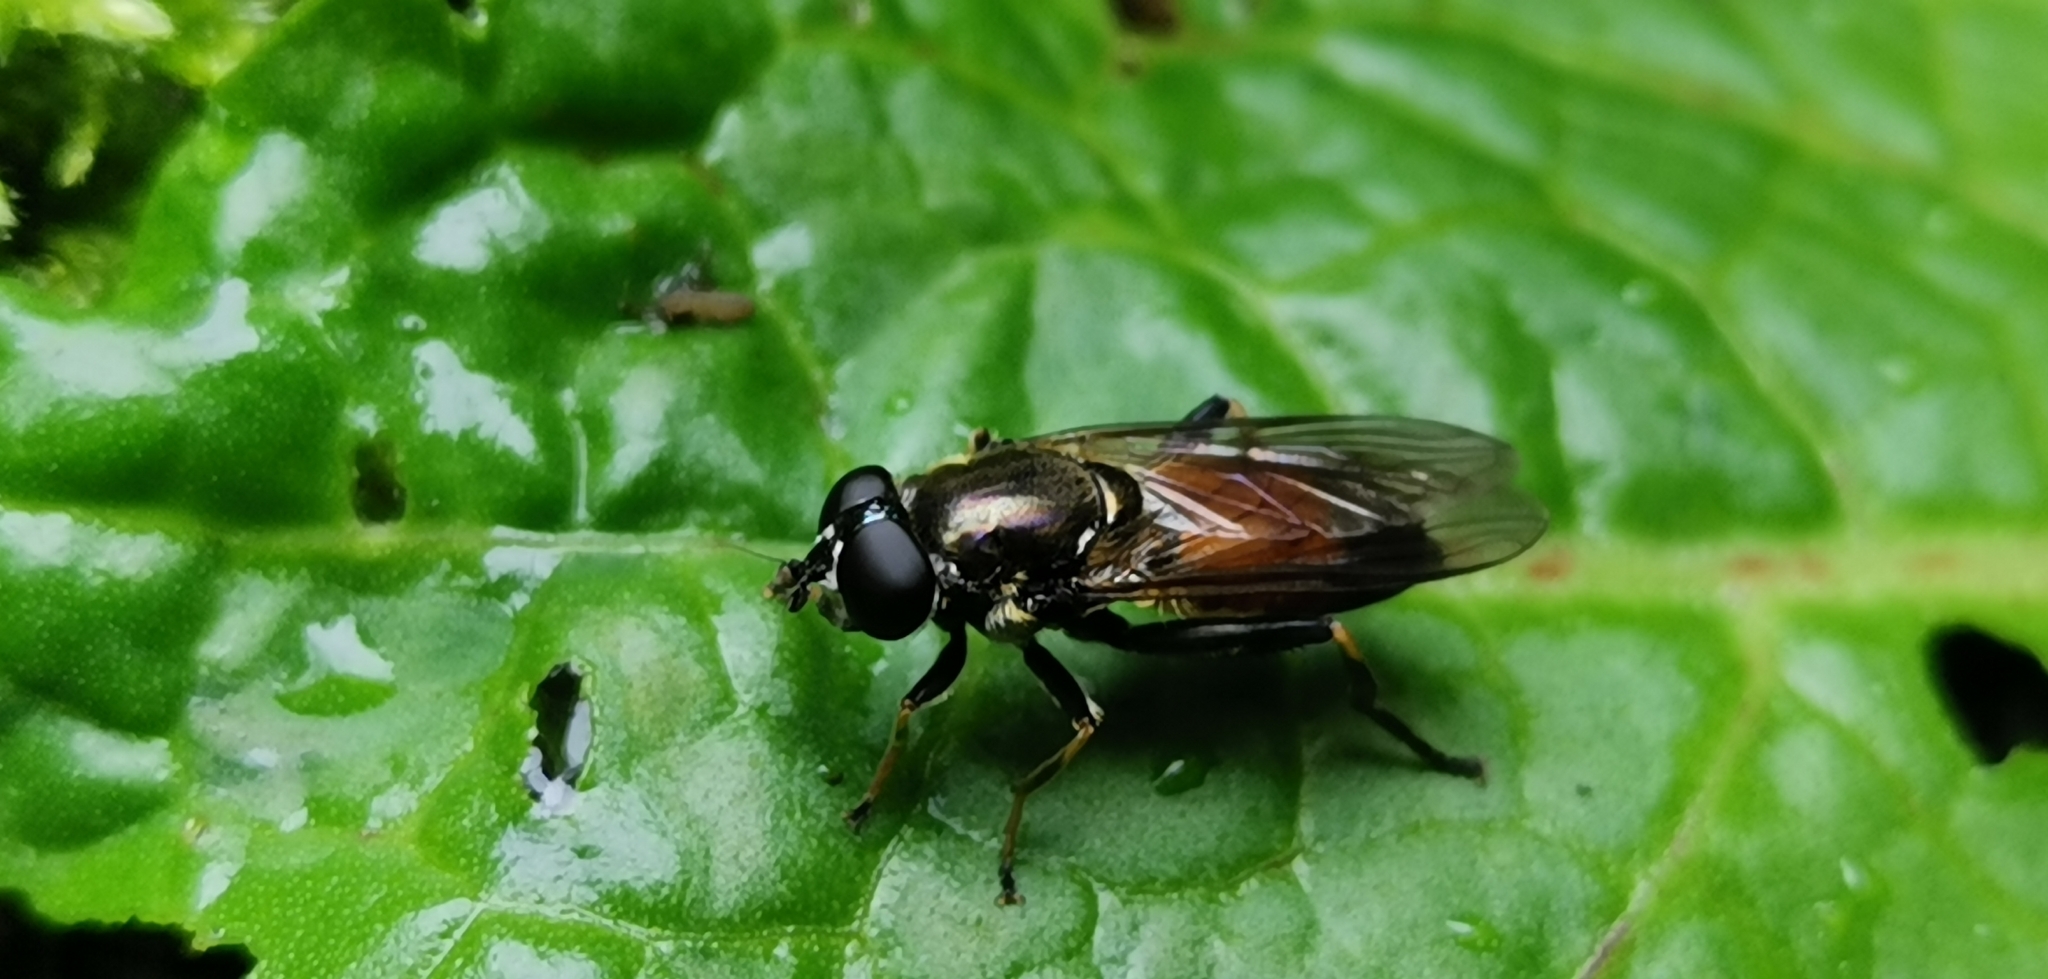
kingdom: Animalia
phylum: Arthropoda
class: Insecta
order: Diptera
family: Syrphidae
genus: Xylota
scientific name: Xylota segnis
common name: Brown-toed forest fly
